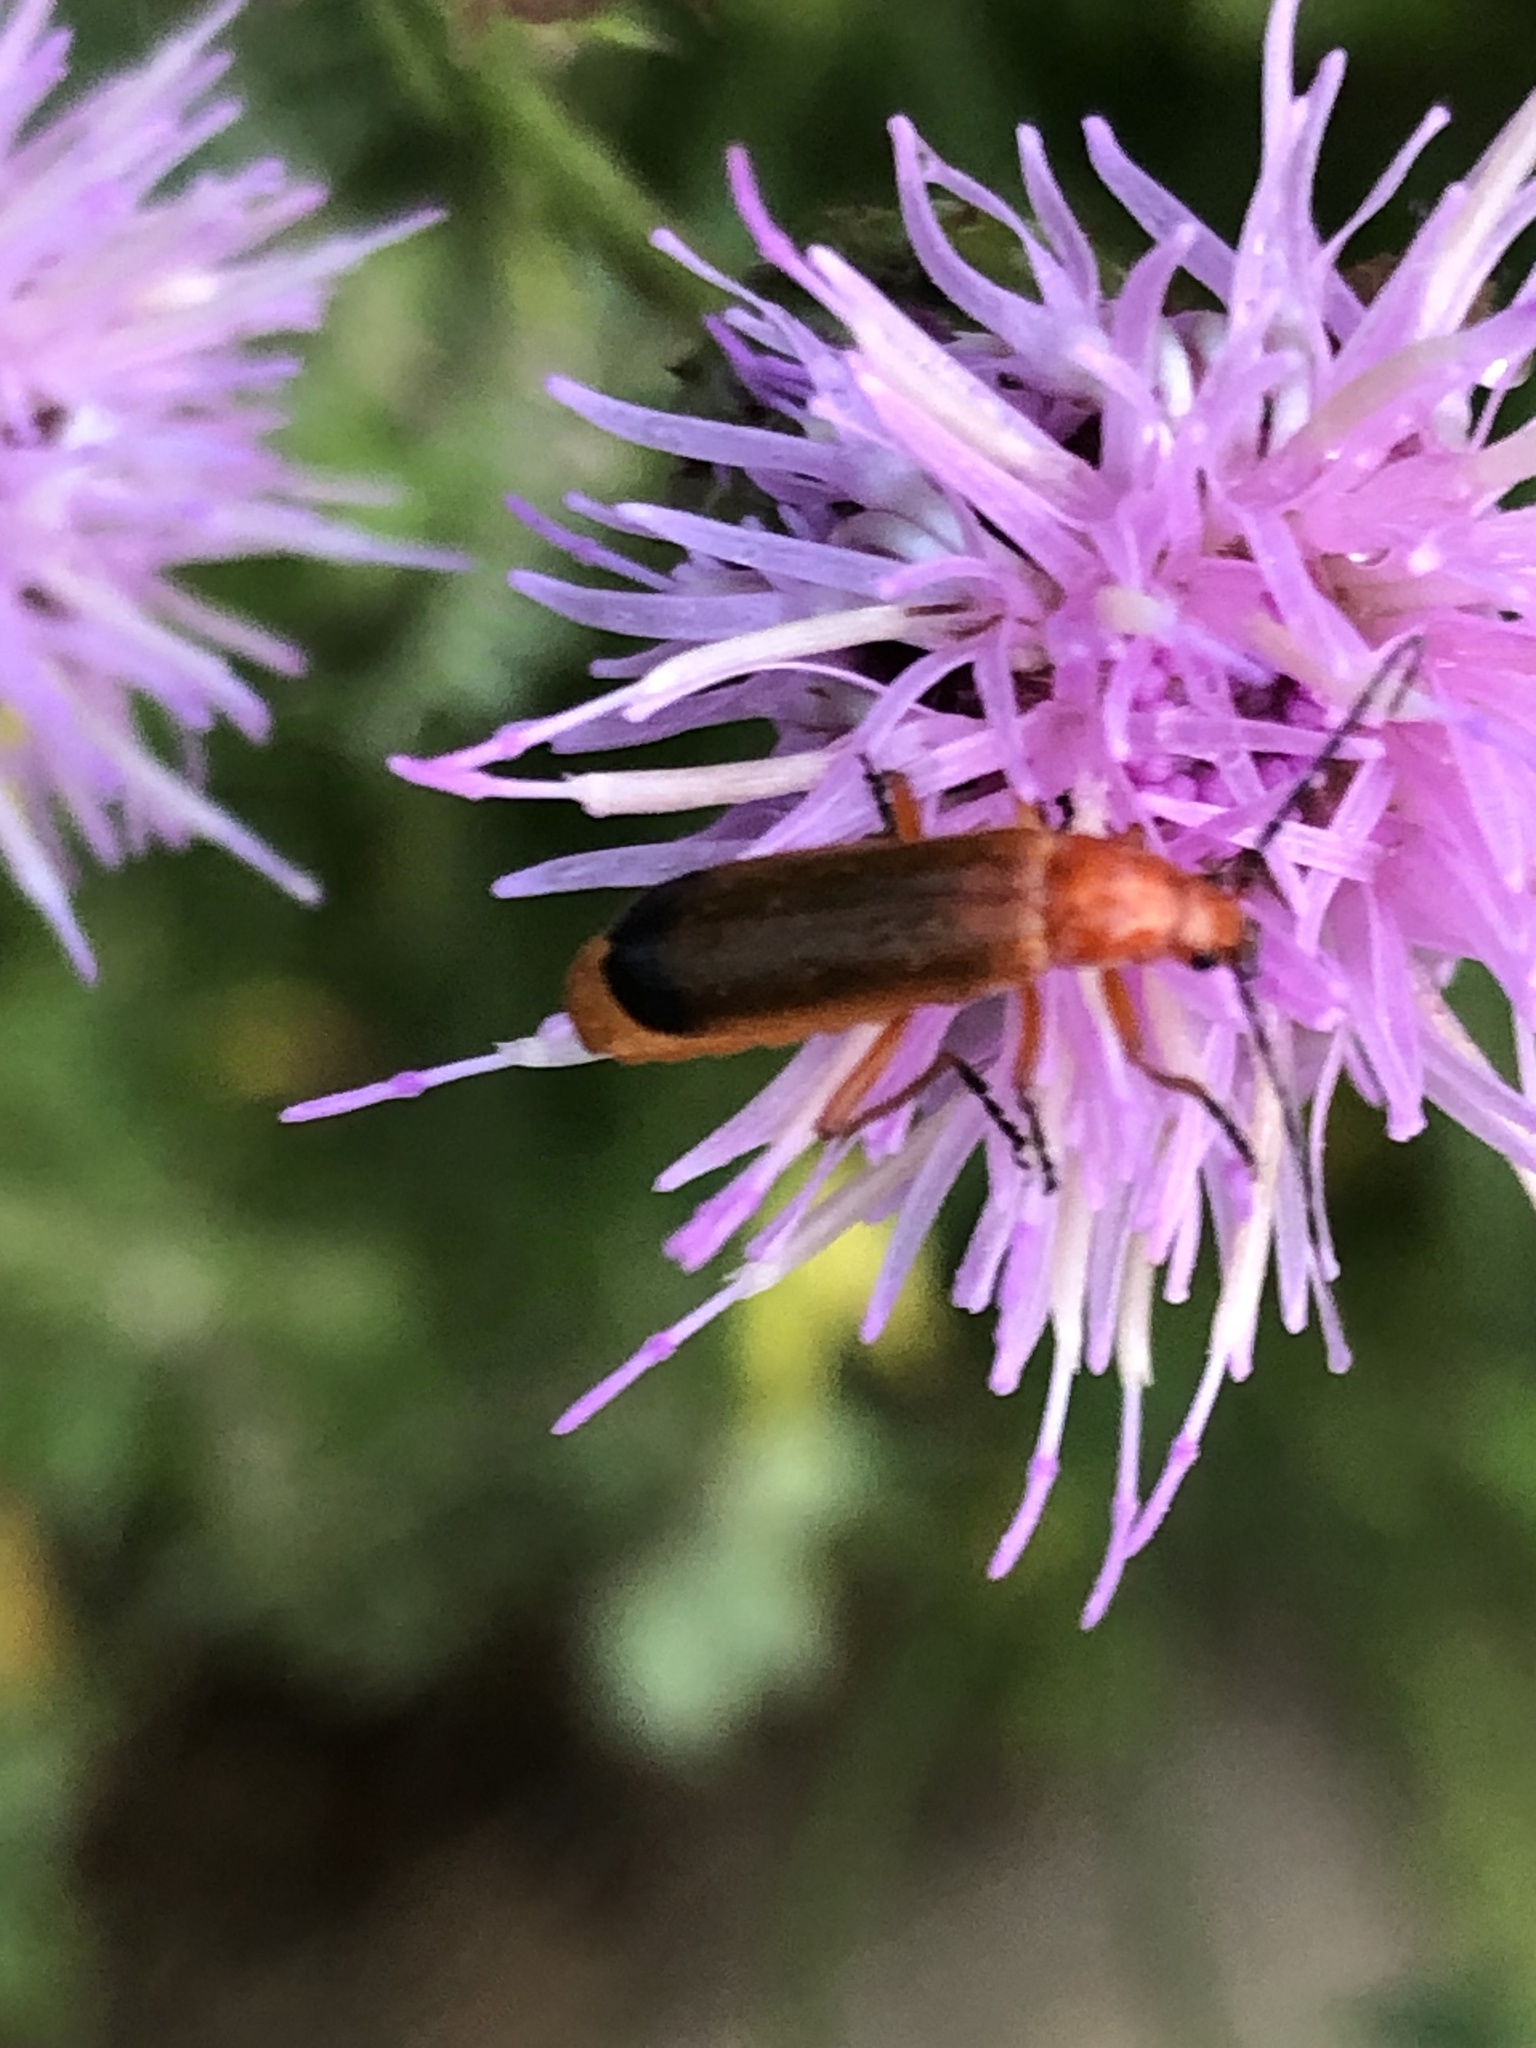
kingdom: Animalia
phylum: Arthropoda
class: Insecta
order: Coleoptera
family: Cantharidae
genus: Rhagonycha
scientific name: Rhagonycha fulva
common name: Common red soldier beetle
